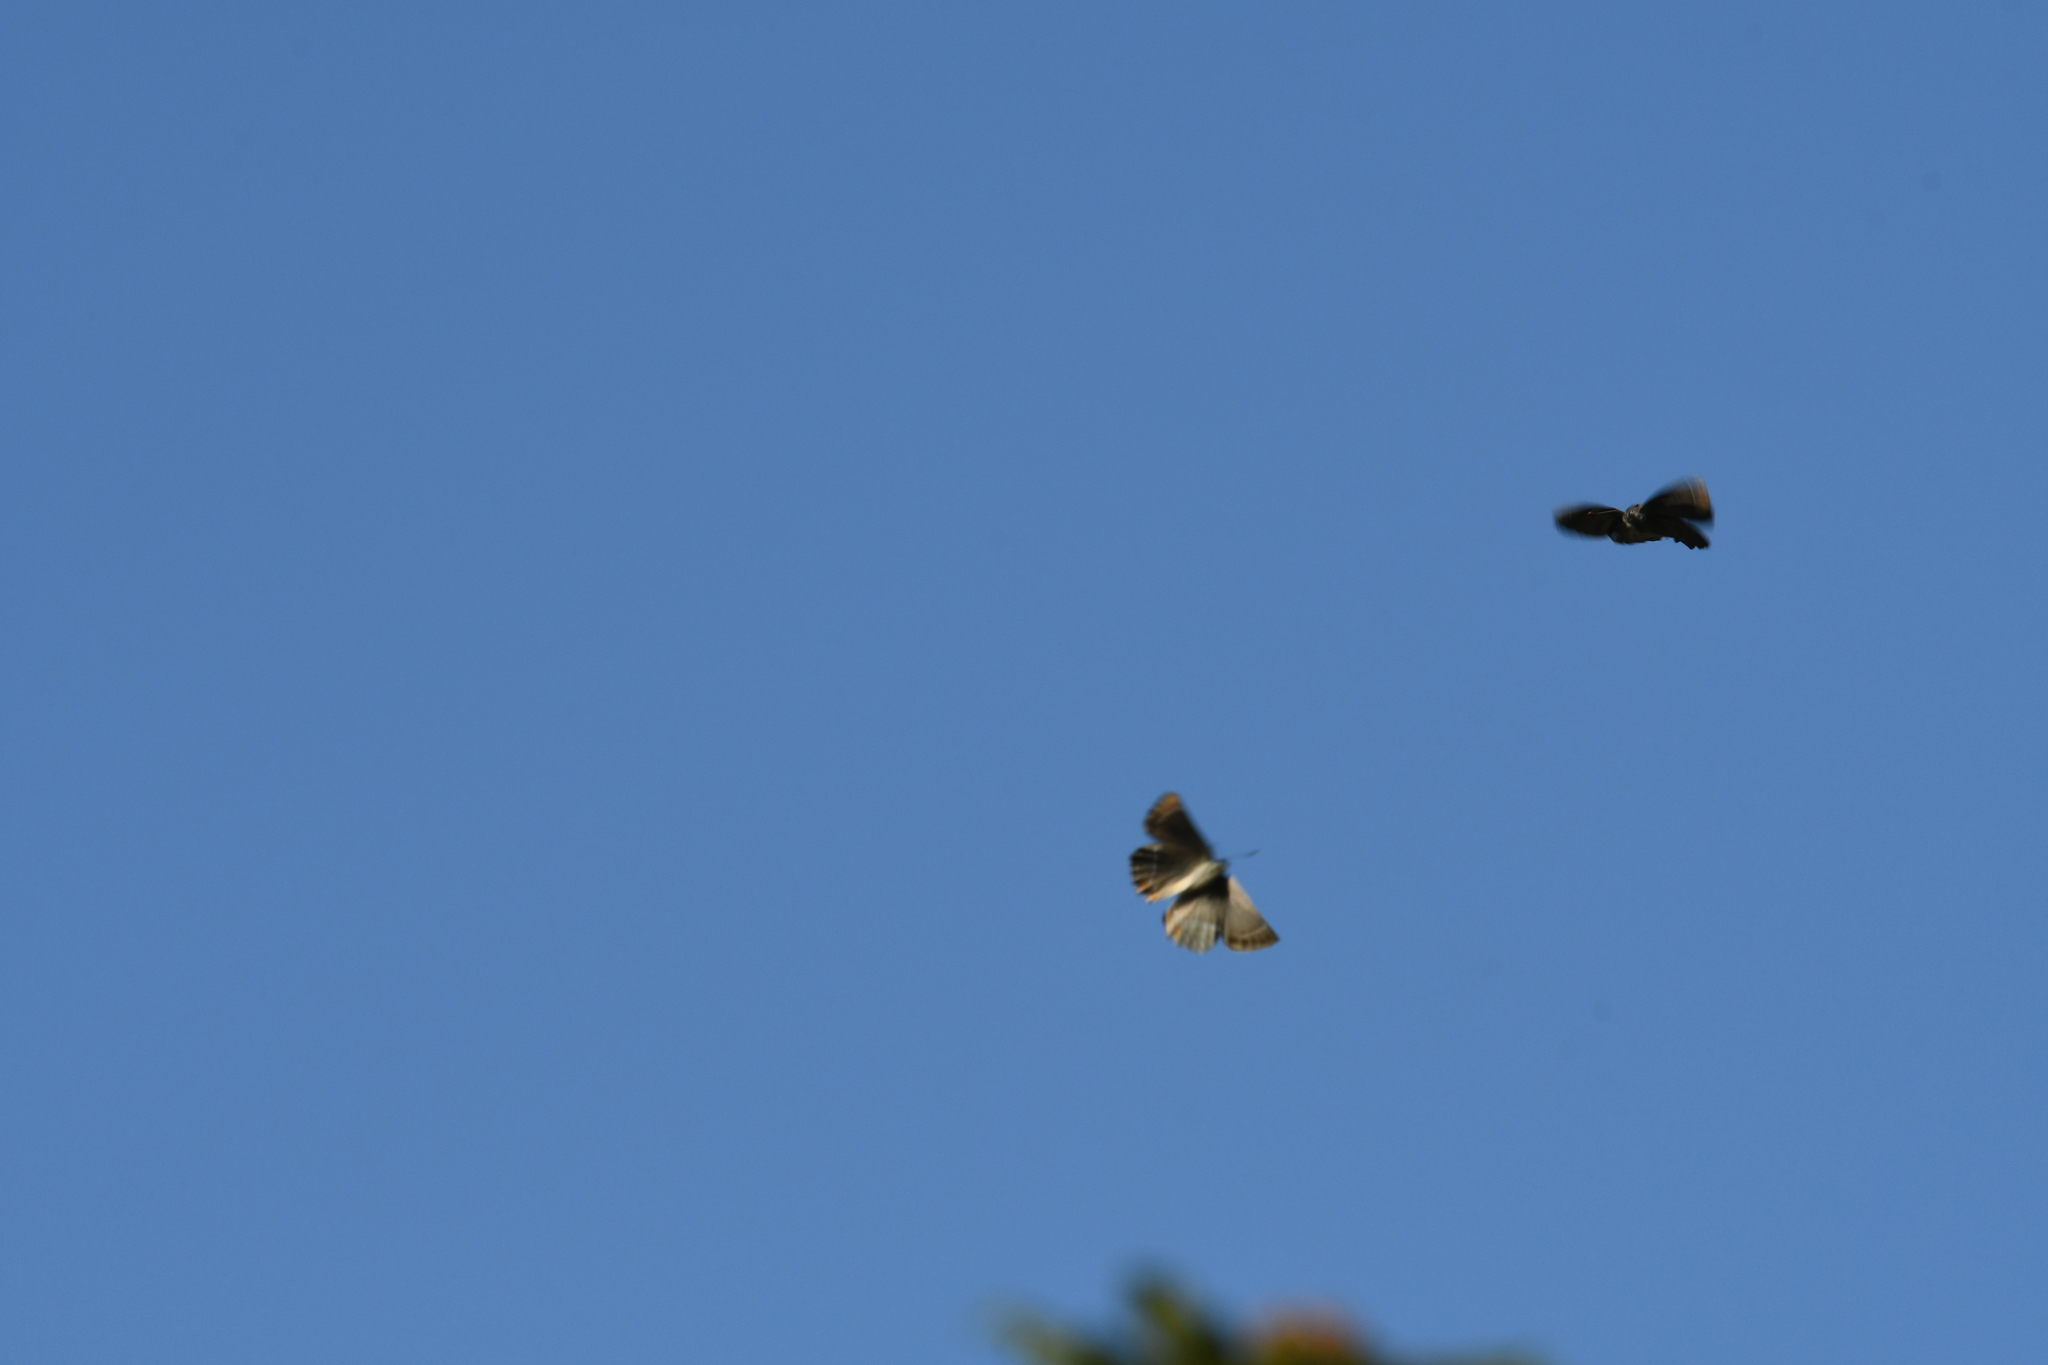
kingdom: Animalia
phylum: Arthropoda
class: Insecta
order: Lepidoptera
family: Lycaenidae
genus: Quercusia
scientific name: Quercusia quercus
